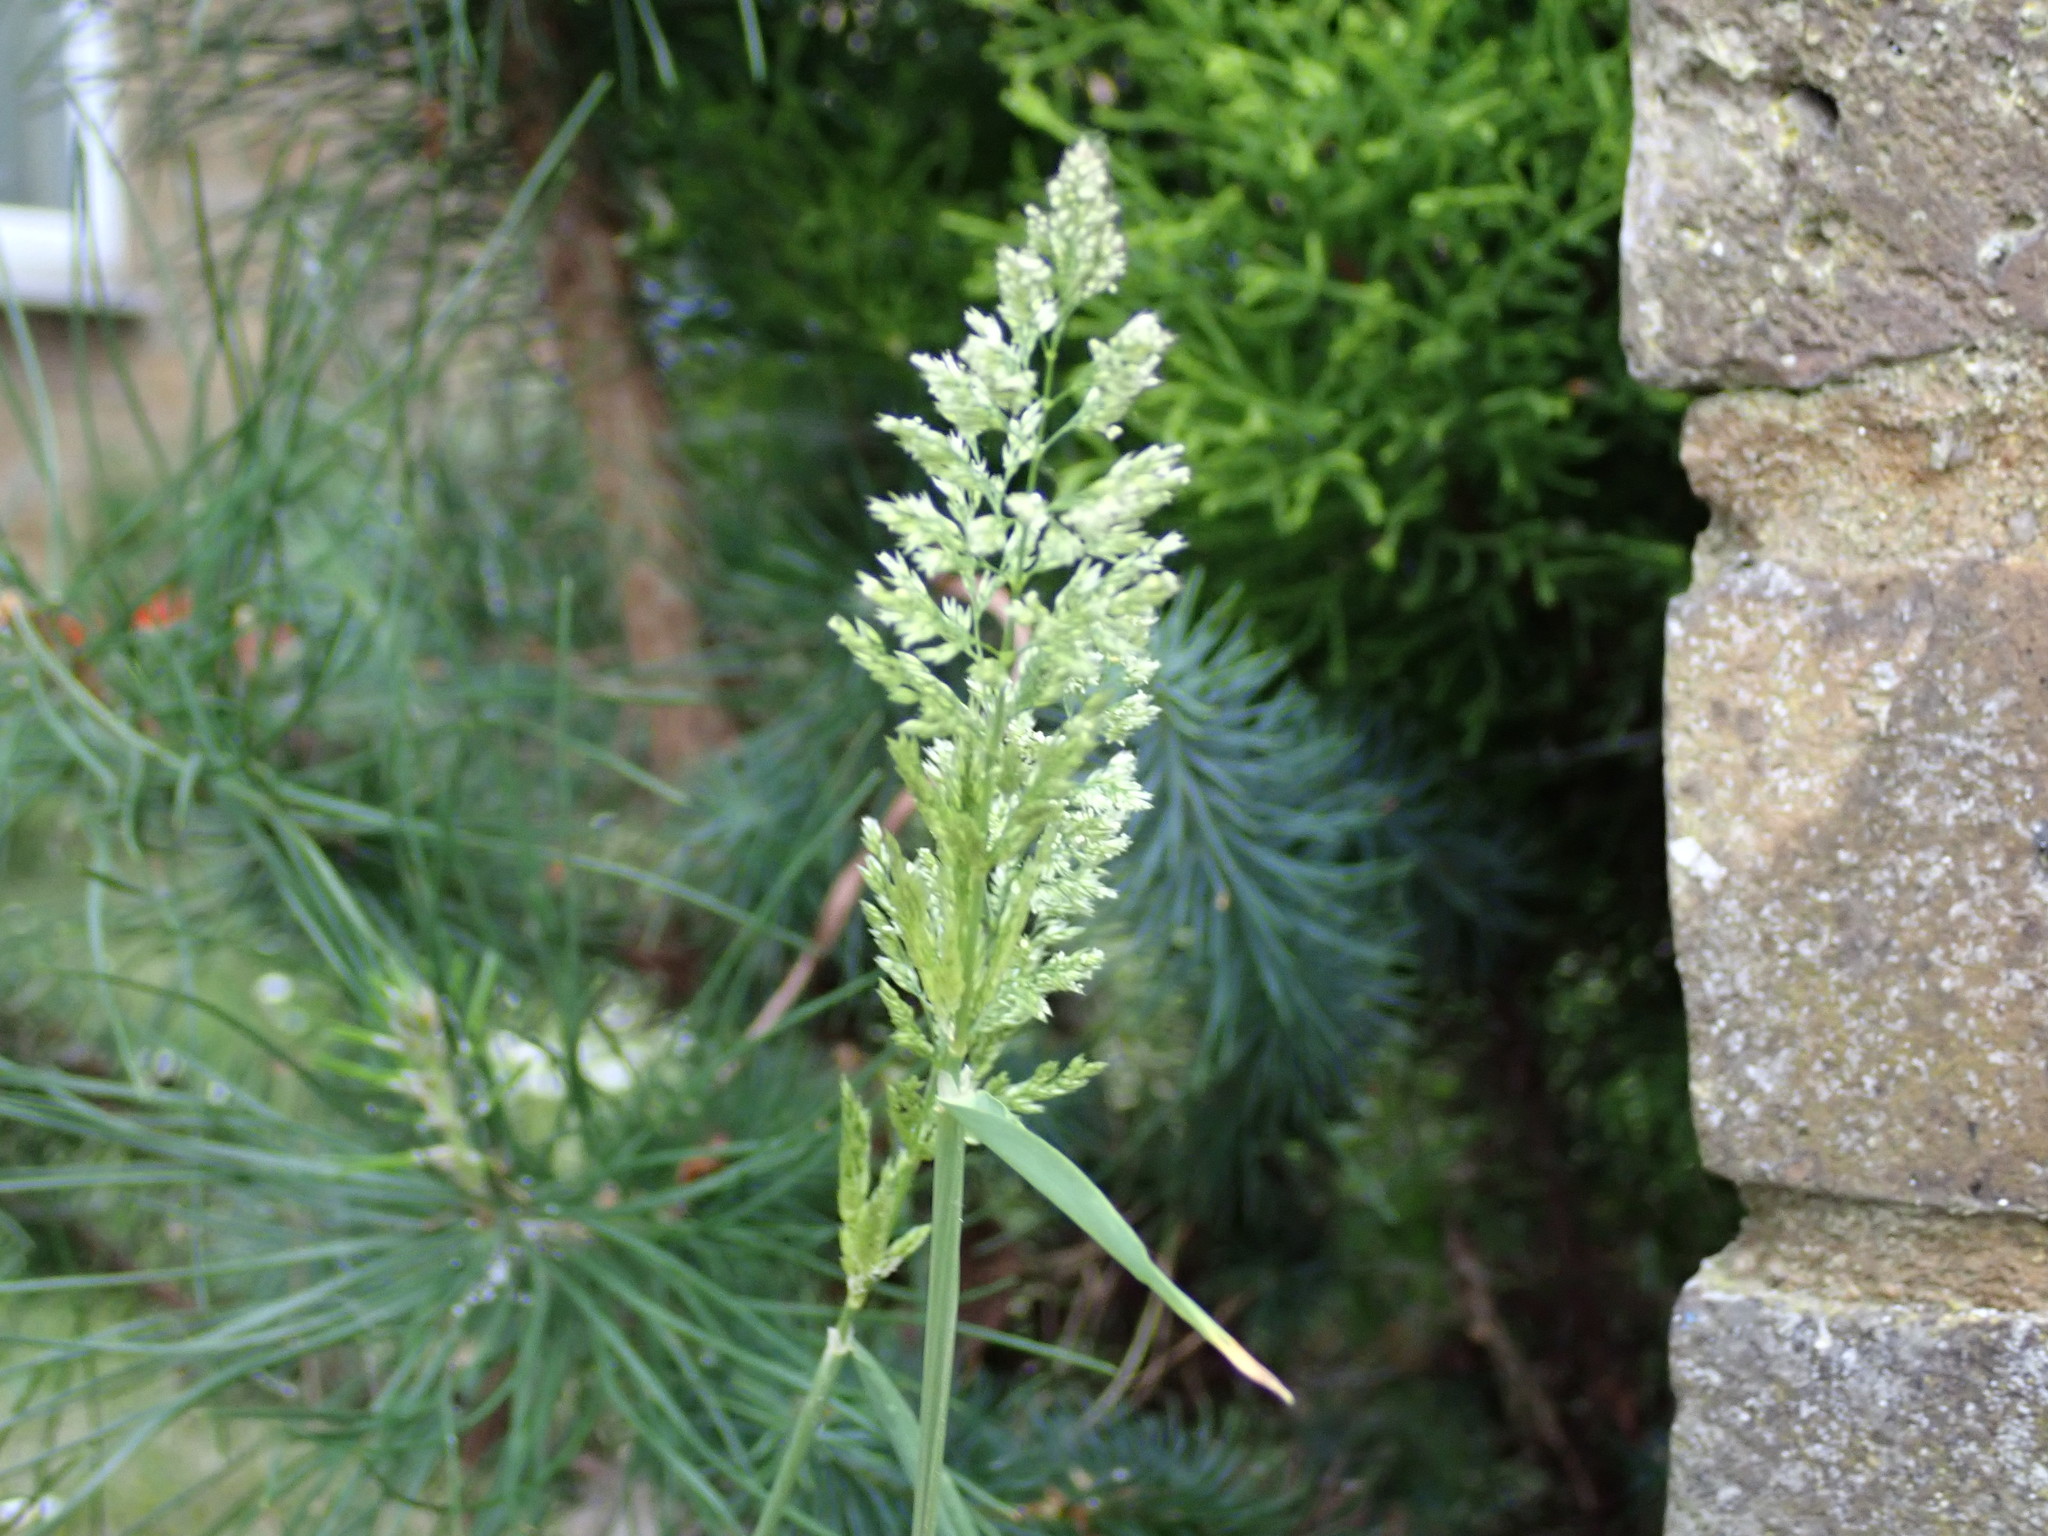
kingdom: Plantae
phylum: Tracheophyta
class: Liliopsida
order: Poales
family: Poaceae
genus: Polypogon
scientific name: Polypogon viridis
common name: Water bent
